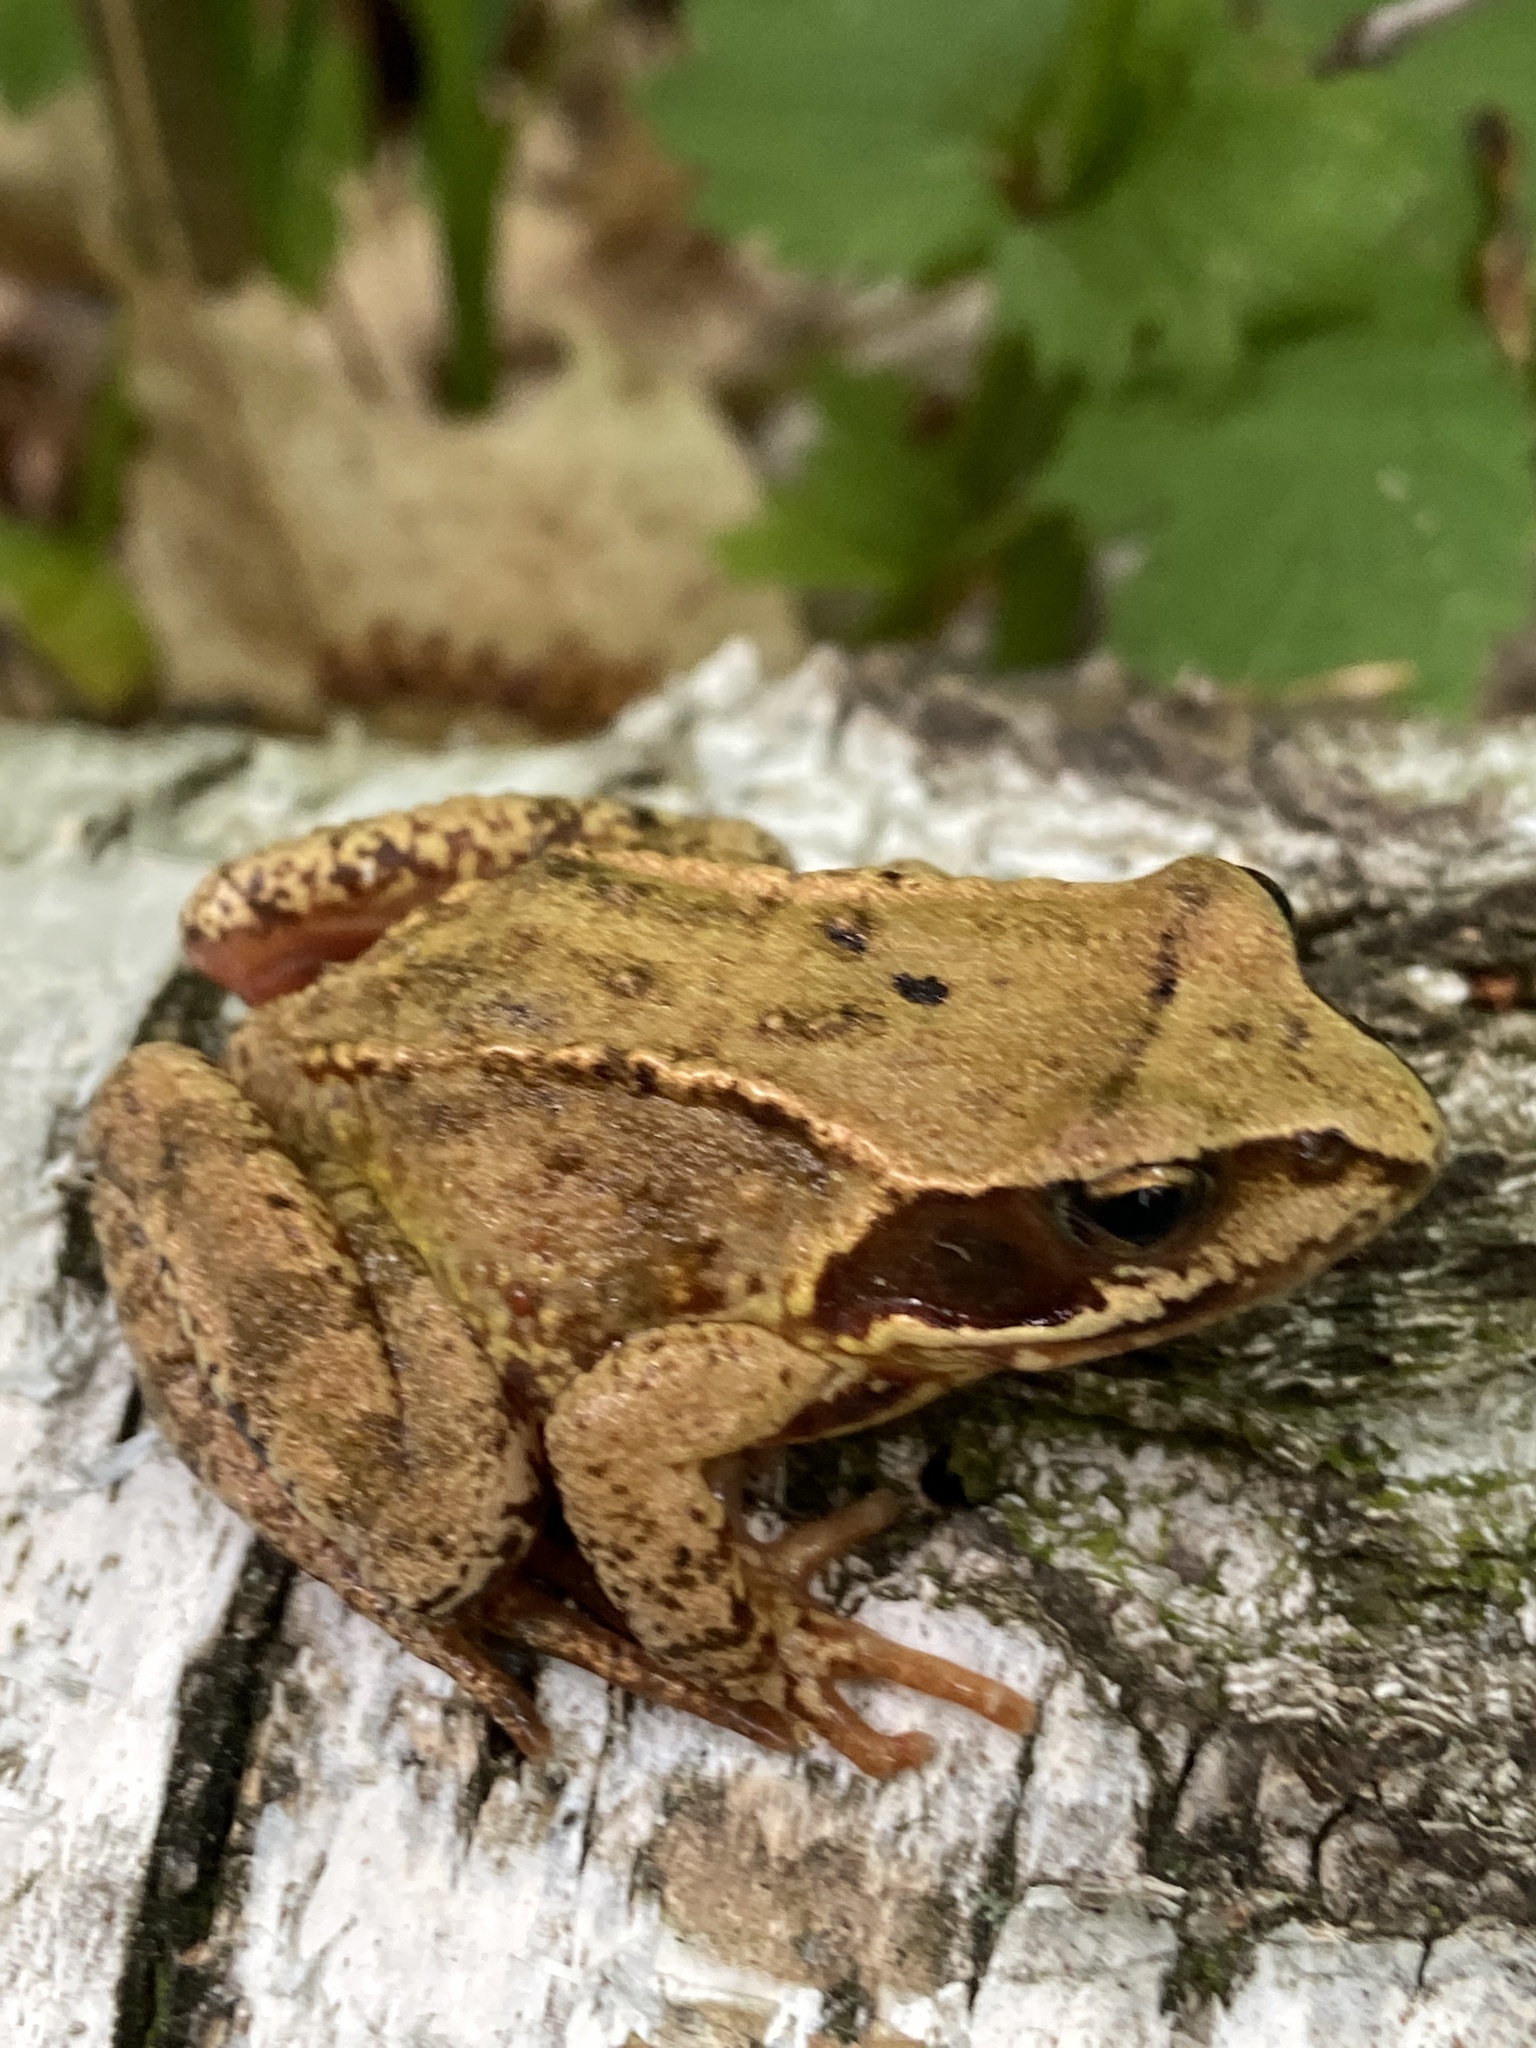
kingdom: Animalia
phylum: Chordata
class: Amphibia
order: Anura
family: Ranidae
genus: Rana
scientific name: Rana temporaria
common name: Common frog
